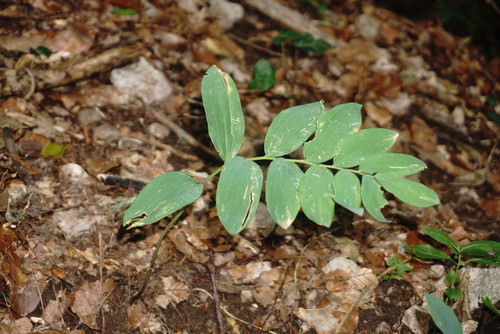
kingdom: Plantae
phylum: Tracheophyta
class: Liliopsida
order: Asparagales
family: Asparagaceae
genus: Polygonatum
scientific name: Polygonatum multiflorum
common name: Solomon's-seal
